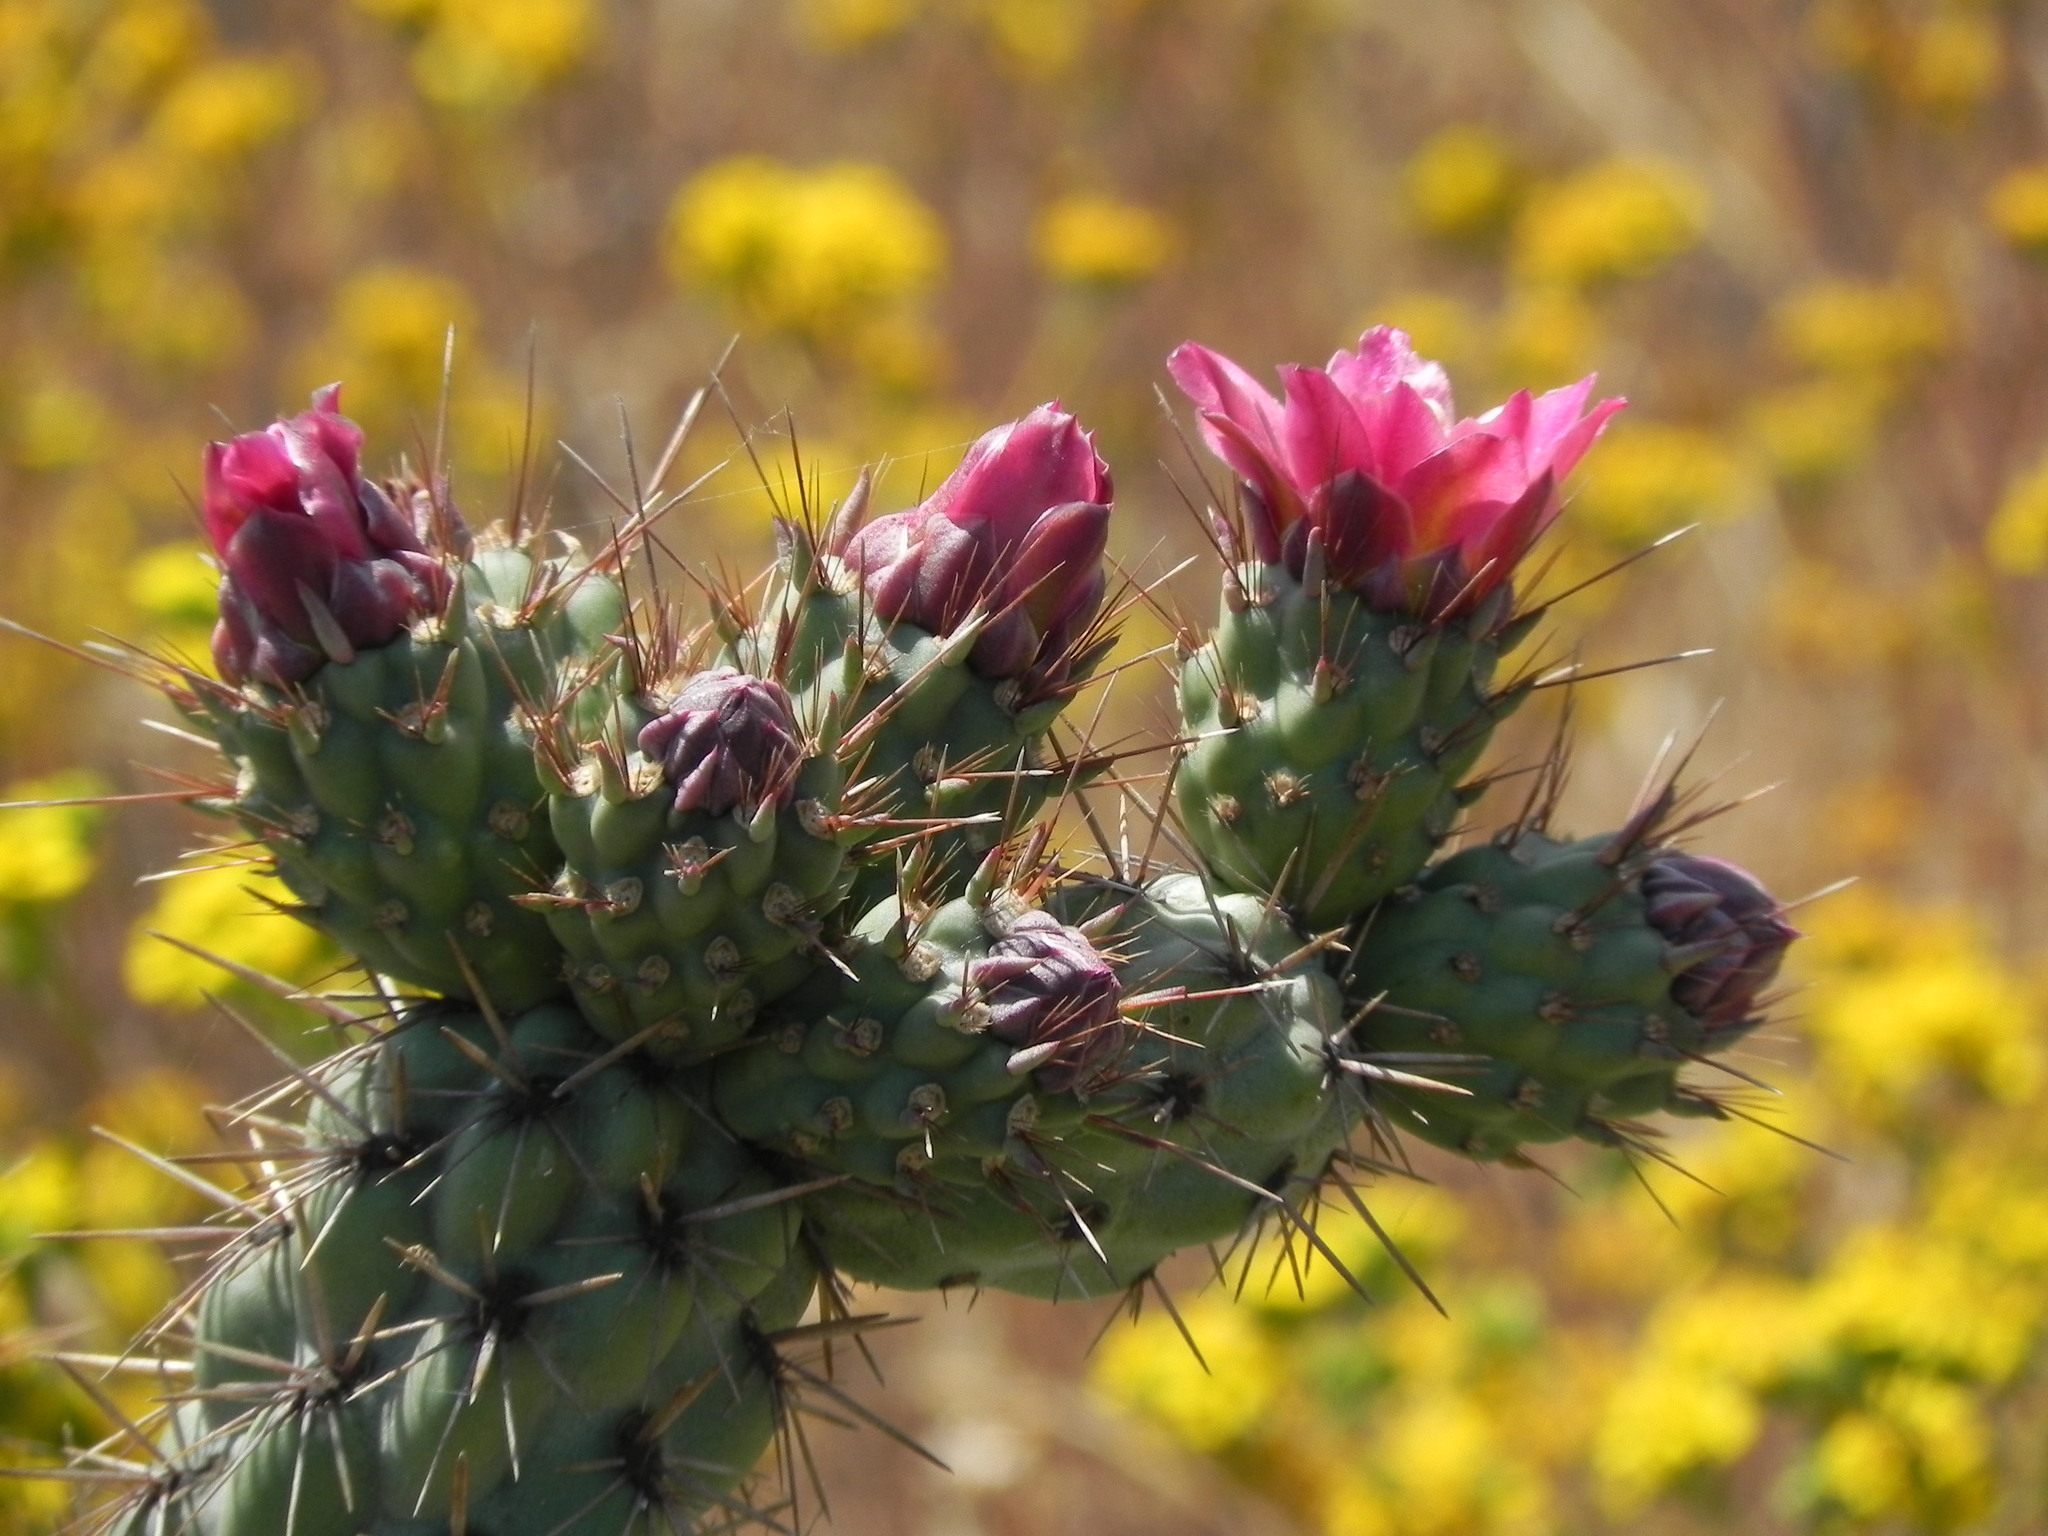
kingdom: Plantae
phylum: Tracheophyta
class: Magnoliopsida
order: Caryophyllales
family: Cactaceae
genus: Cylindropuntia
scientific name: Cylindropuntia prolifera
